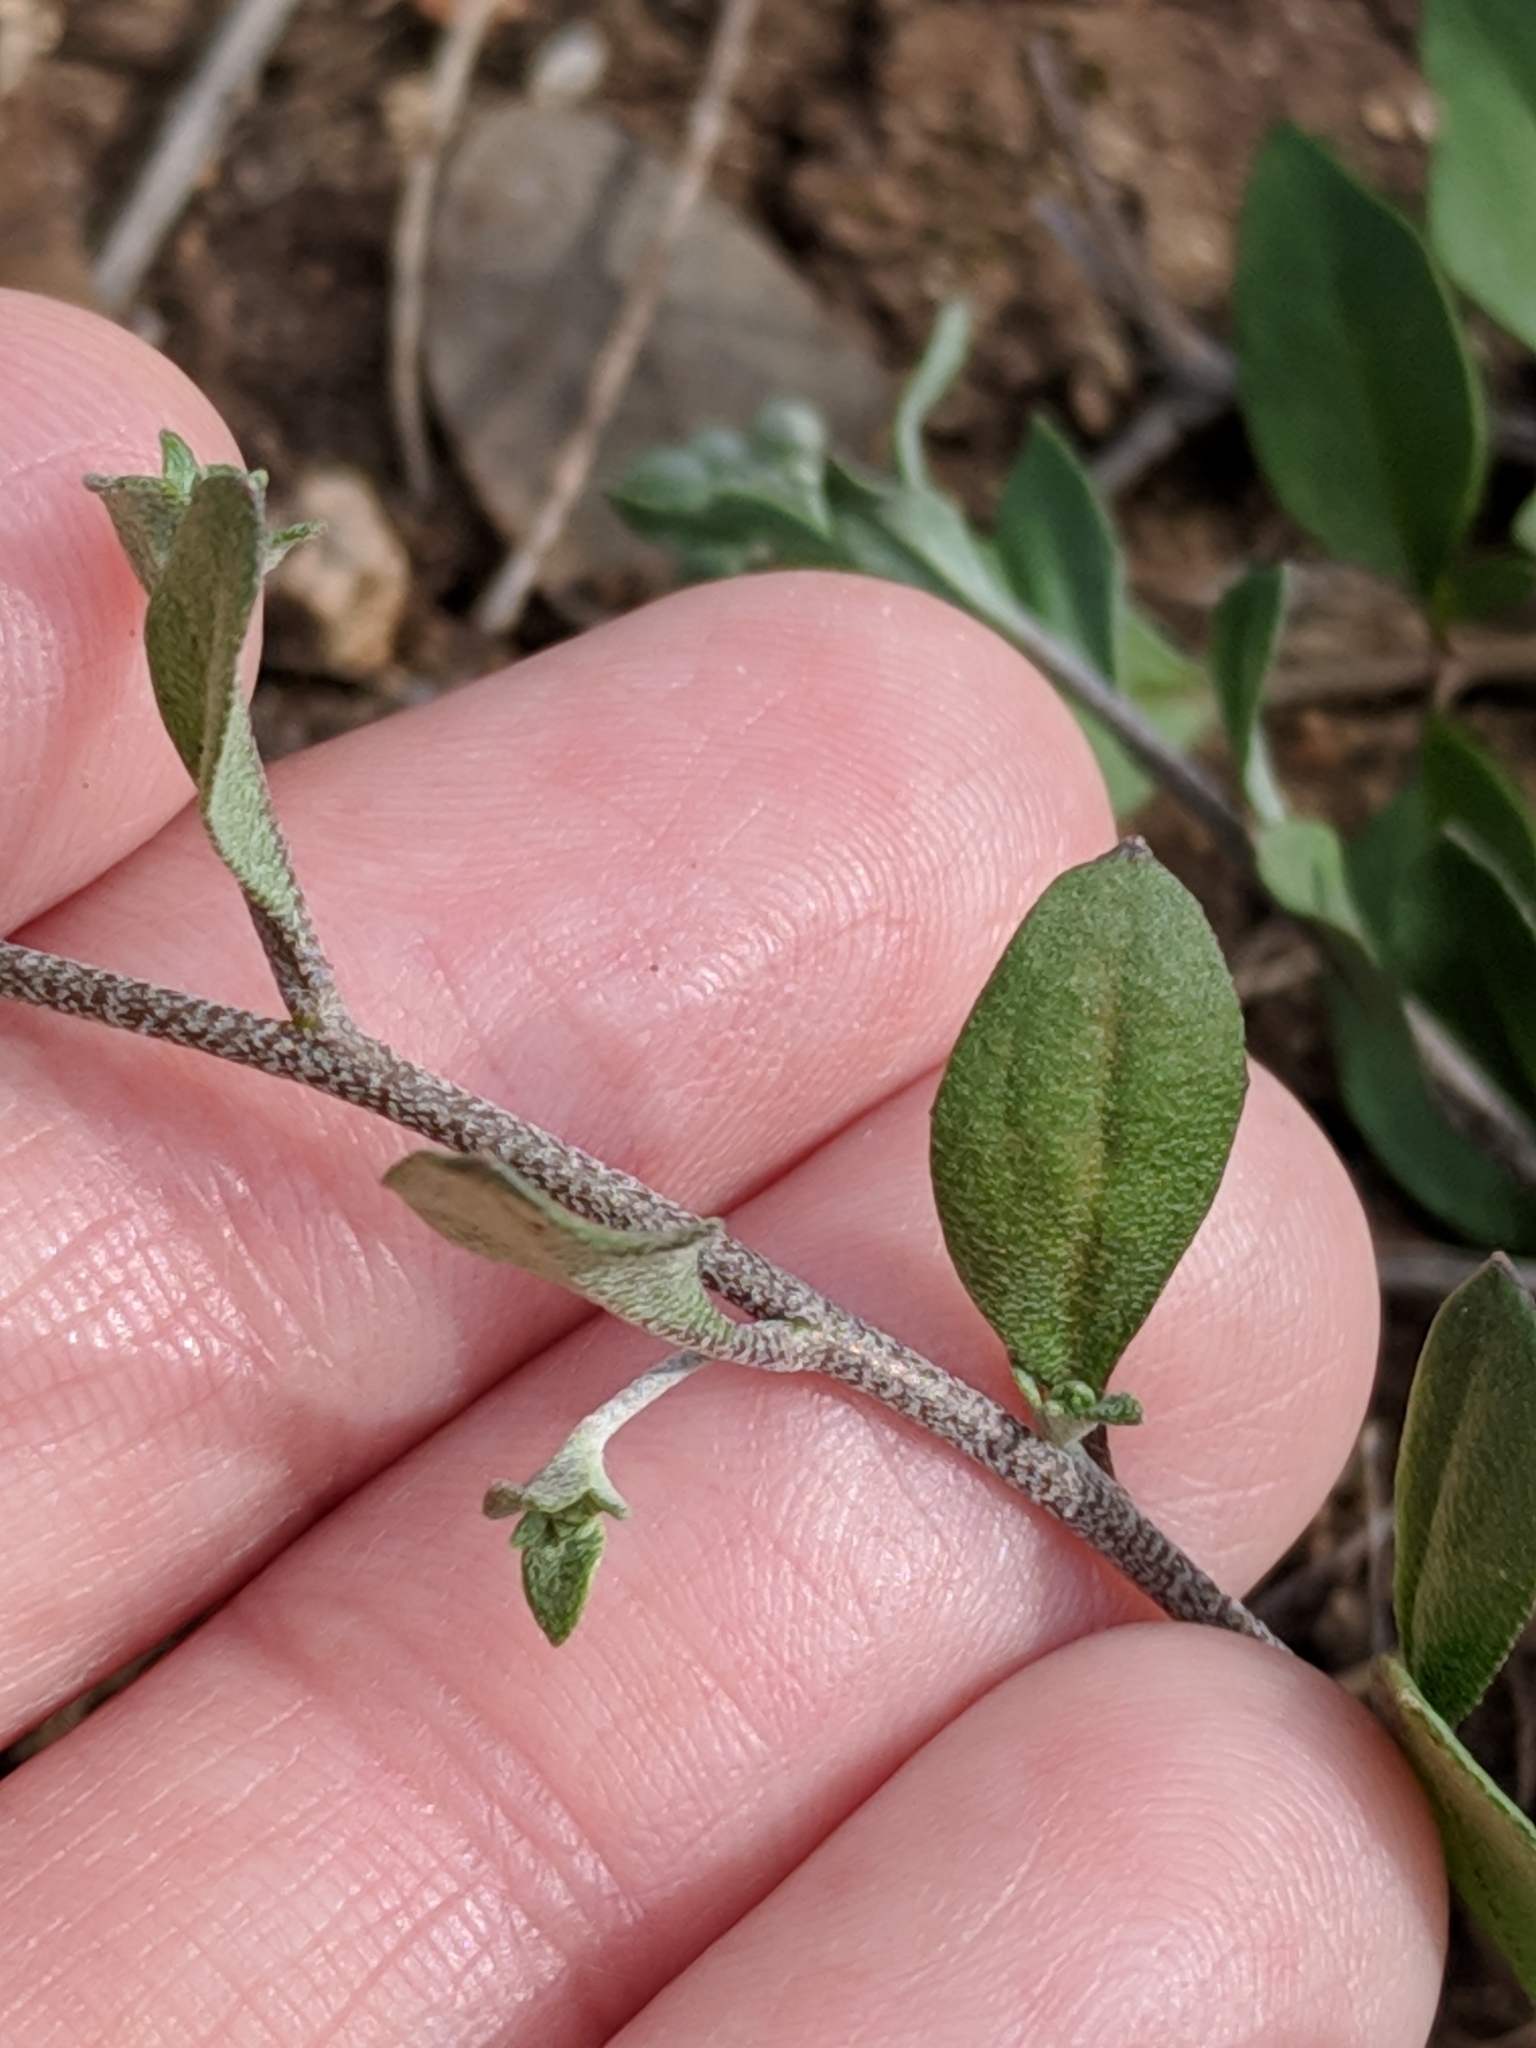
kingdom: Plantae
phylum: Tracheophyta
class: Magnoliopsida
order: Brassicales
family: Brassicaceae
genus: Physaria
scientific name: Physaria recurvata
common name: Gaslight bladderpod
